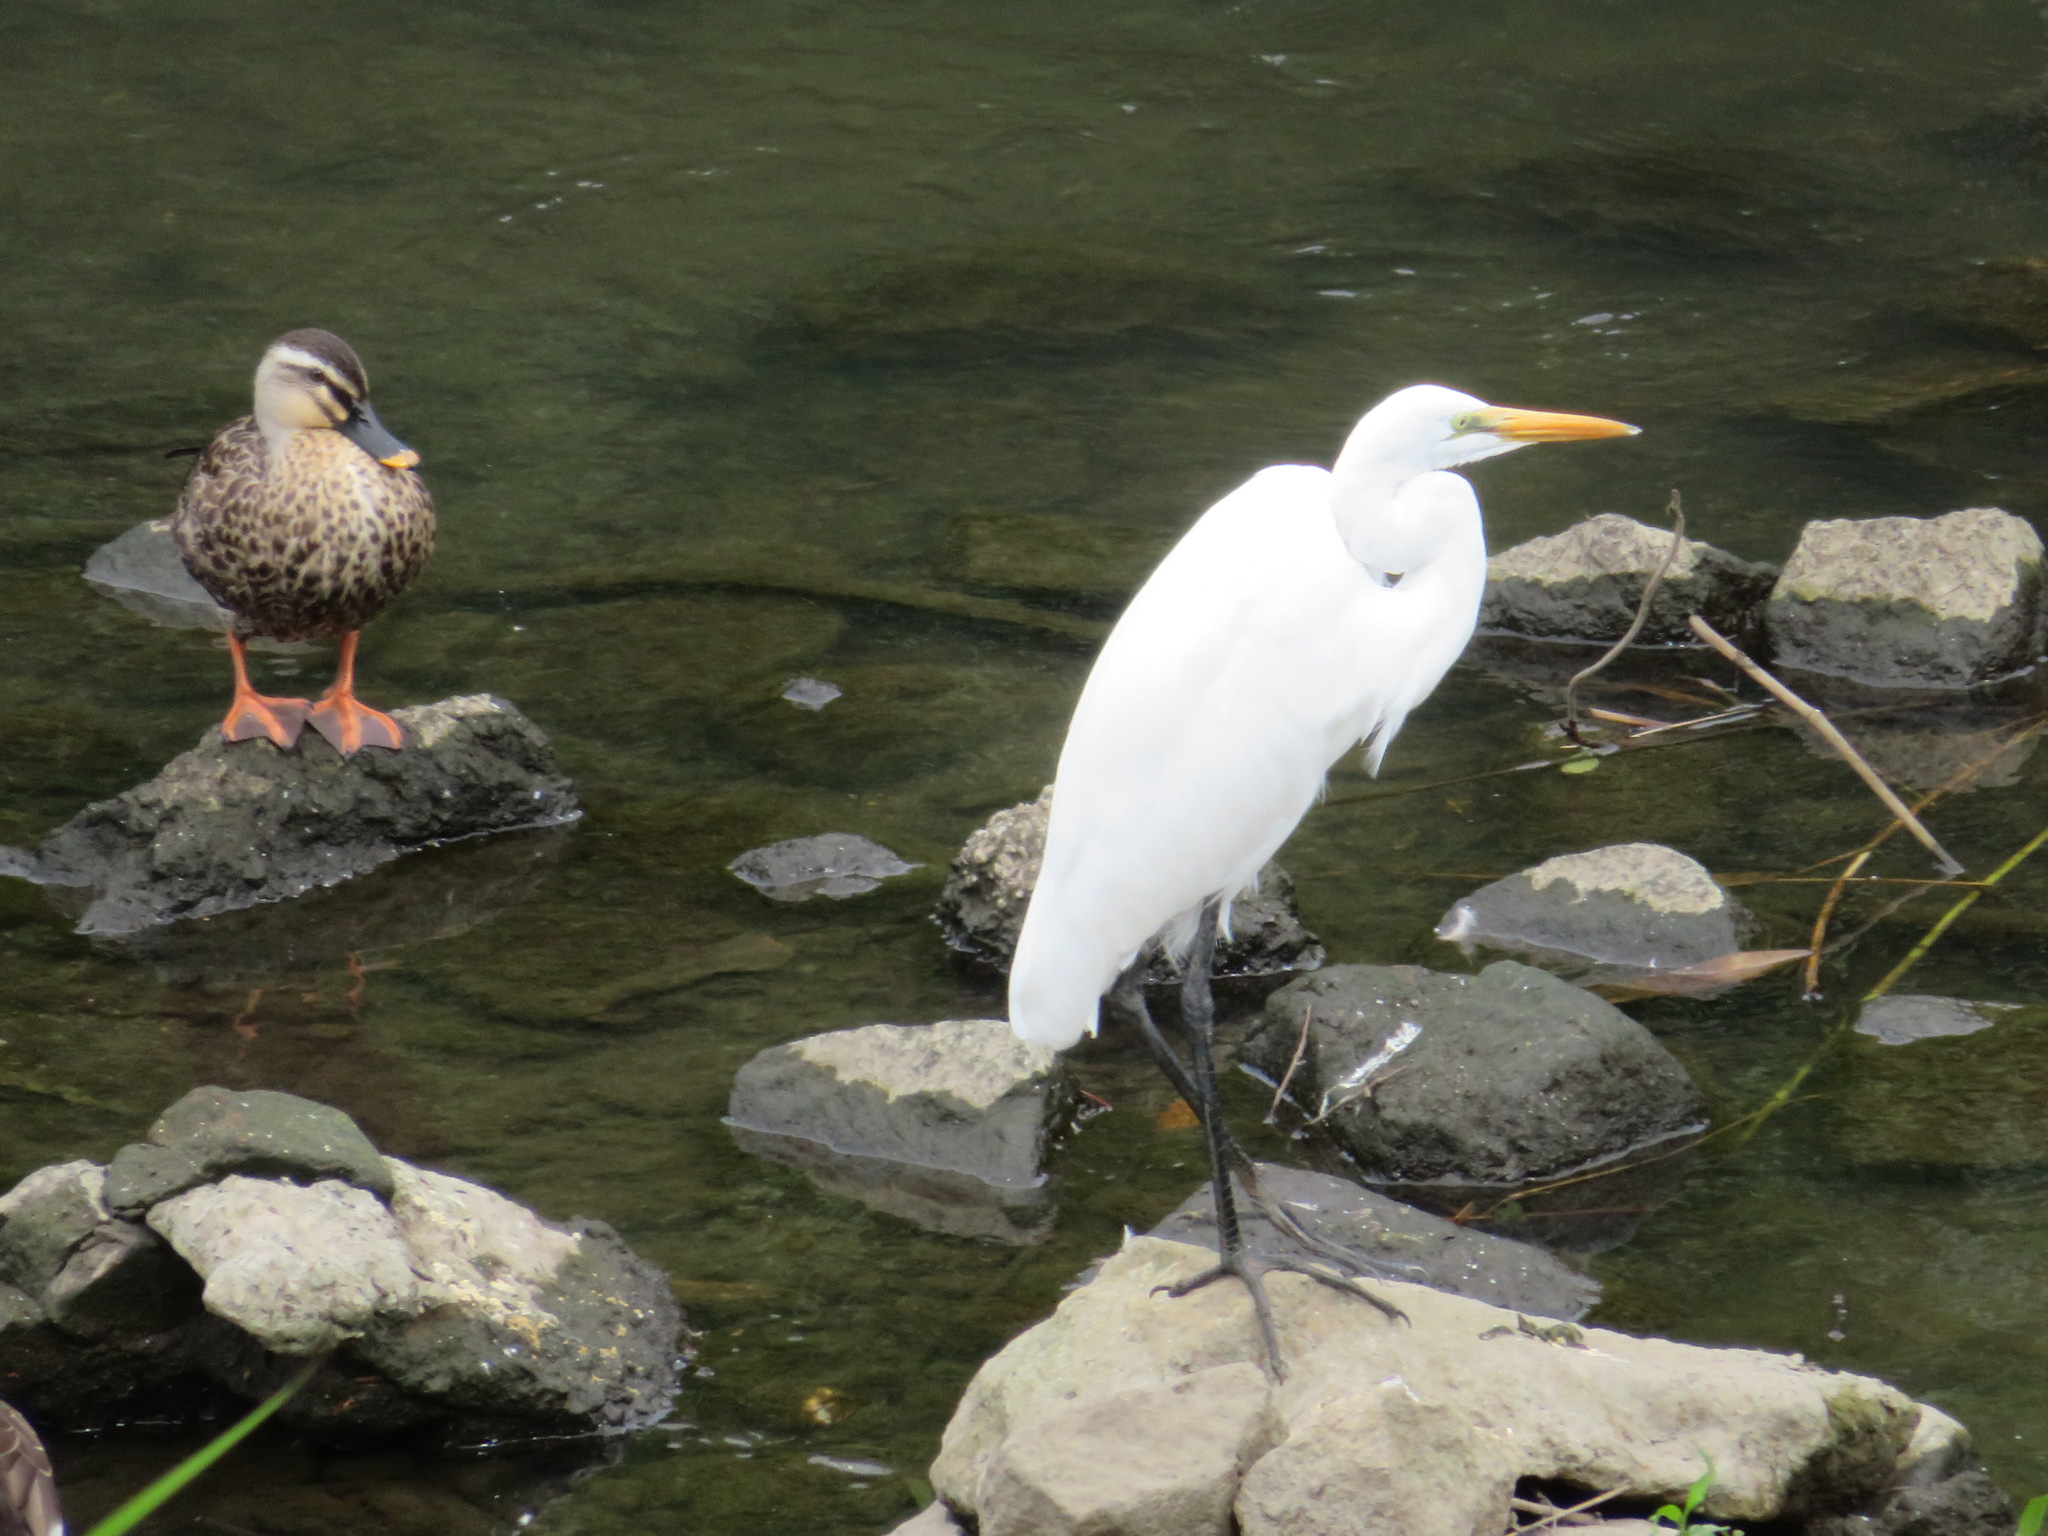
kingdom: Animalia
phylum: Chordata
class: Aves
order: Pelecaniformes
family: Ardeidae
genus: Ardea
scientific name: Ardea alba
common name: Great egret
